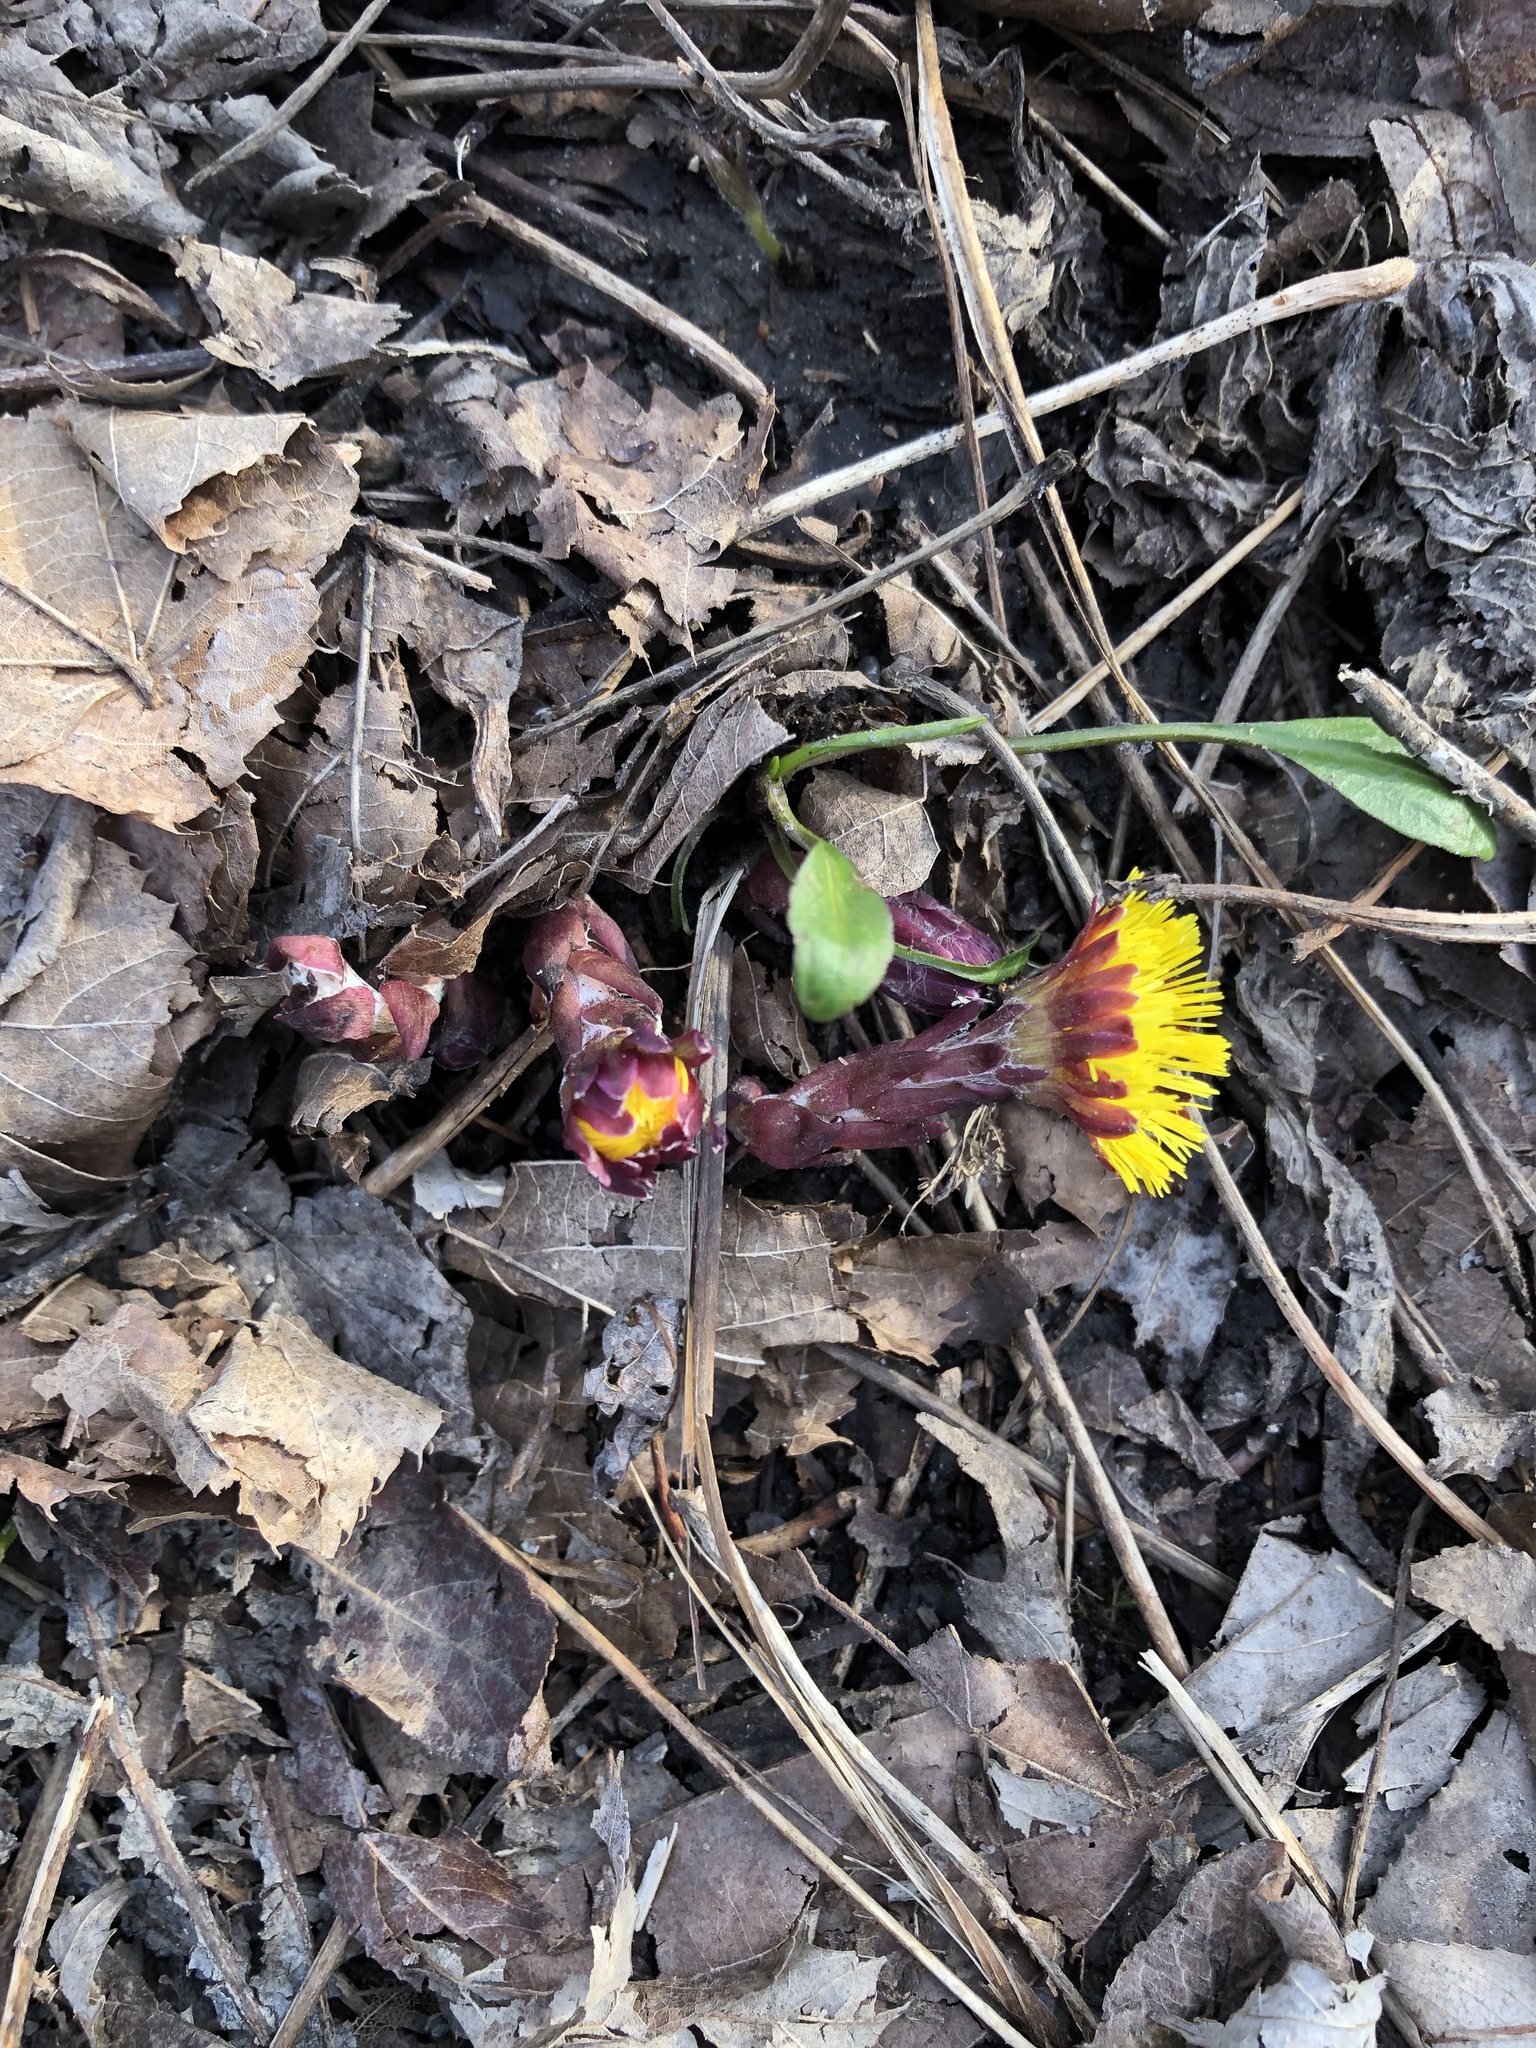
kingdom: Plantae
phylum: Tracheophyta
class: Magnoliopsida
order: Asterales
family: Asteraceae
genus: Tussilago
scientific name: Tussilago farfara
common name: Coltsfoot
